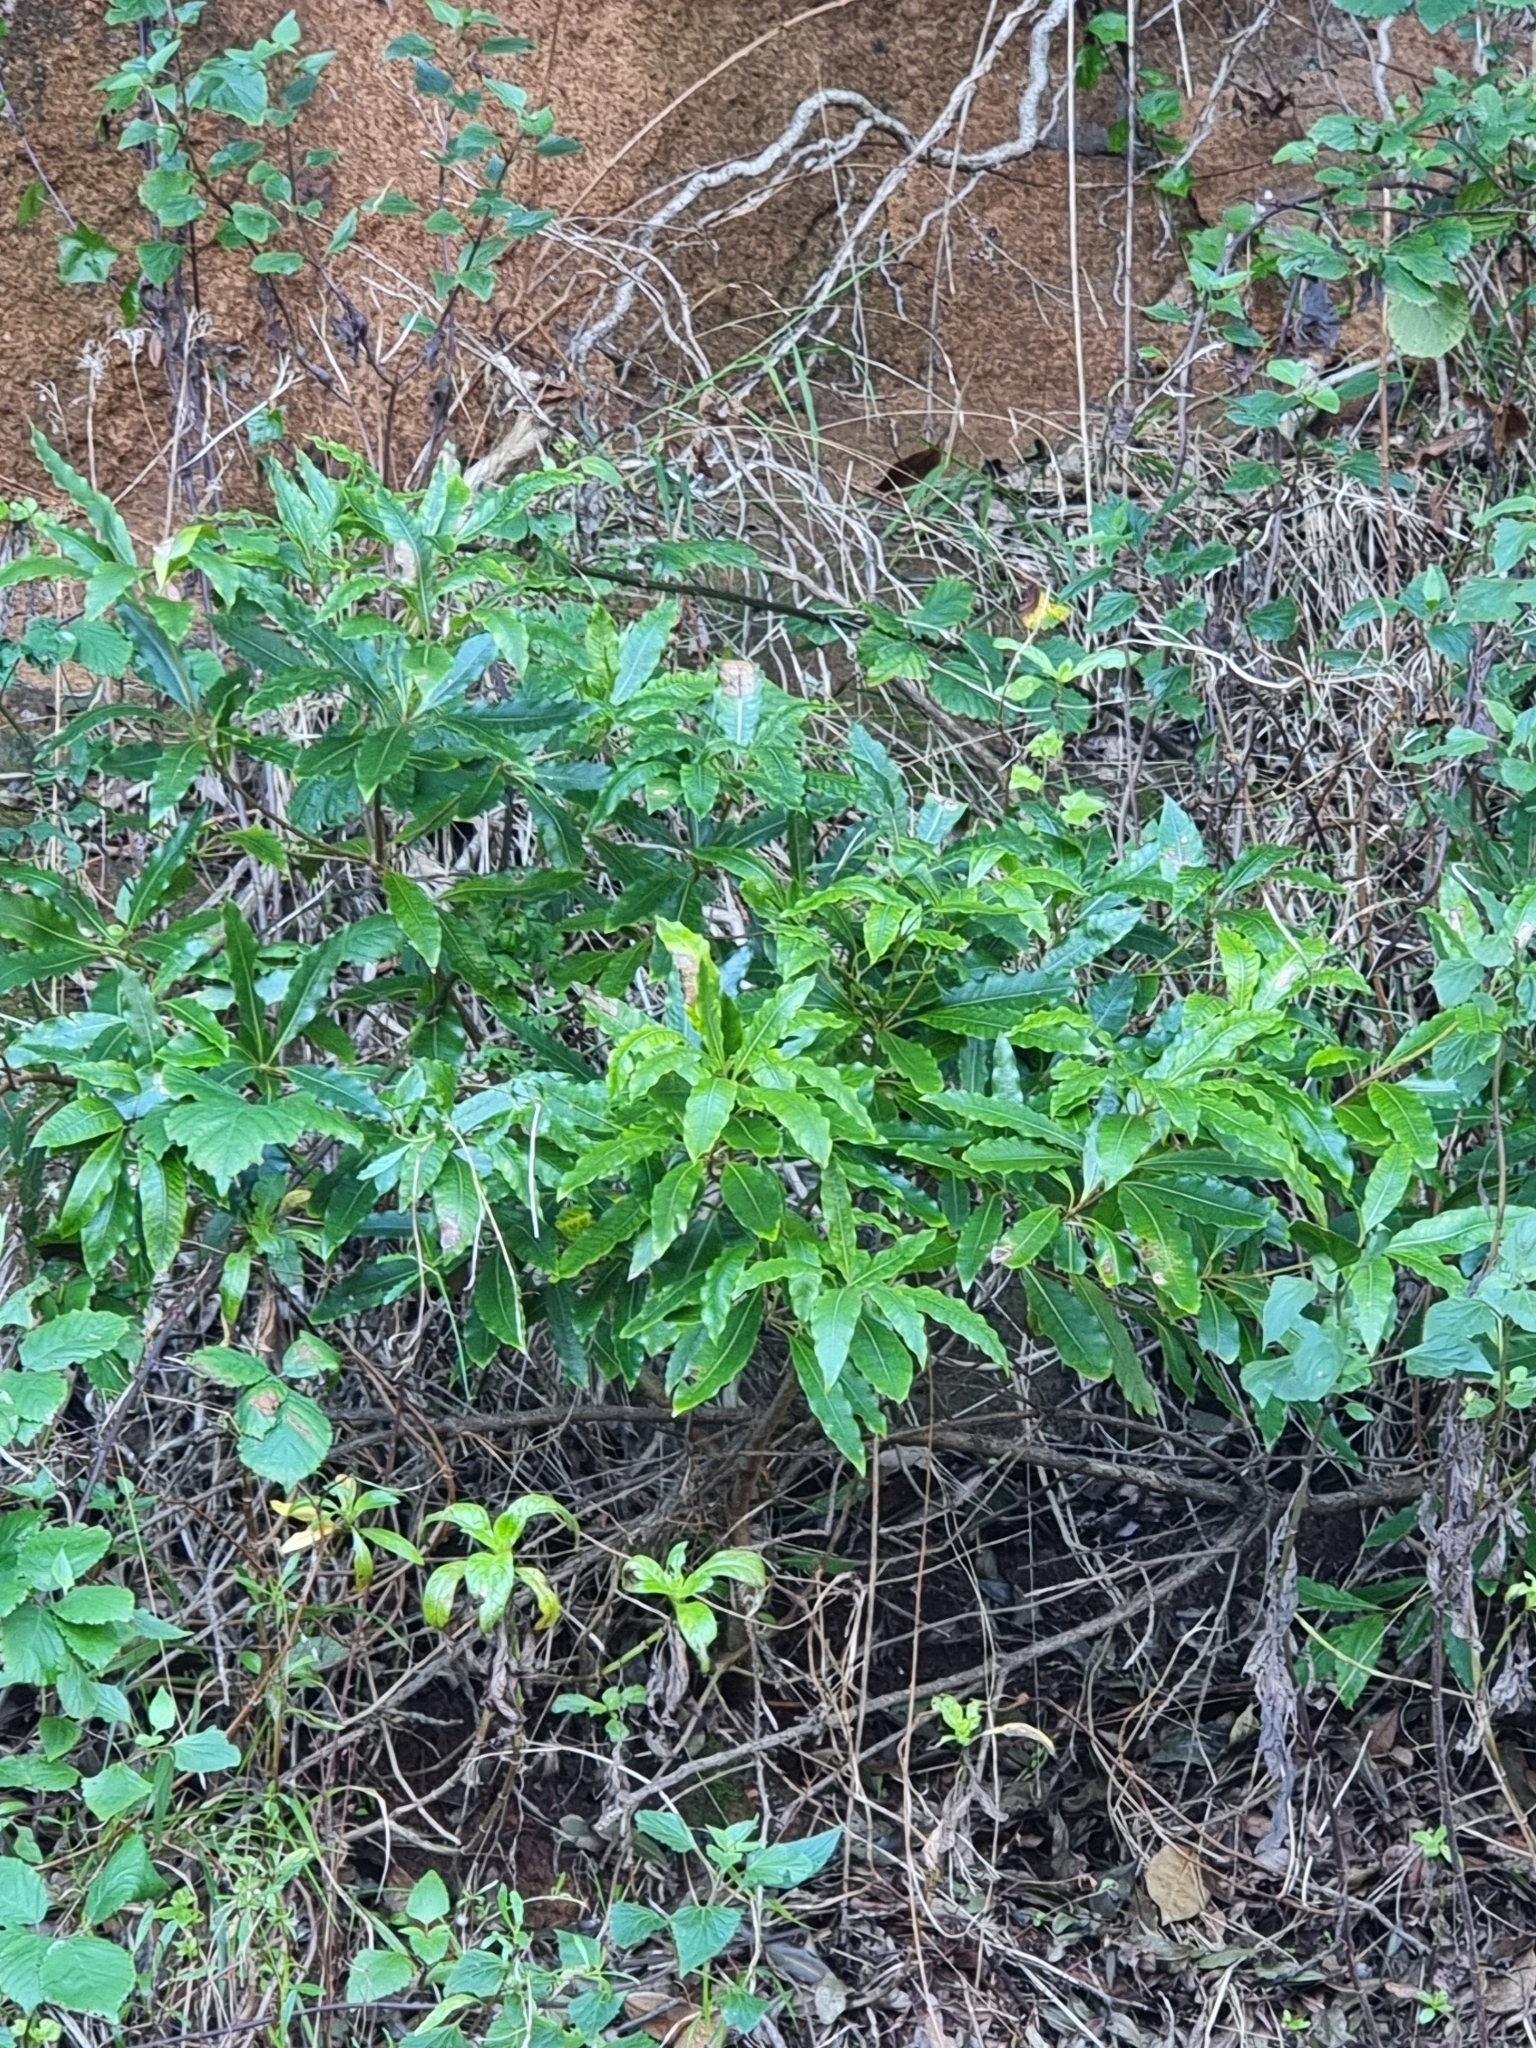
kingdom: Plantae
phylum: Tracheophyta
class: Magnoliopsida
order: Apiales
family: Pittosporaceae
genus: Pittosporum
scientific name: Pittosporum undulatum
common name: Australian cheesewood
